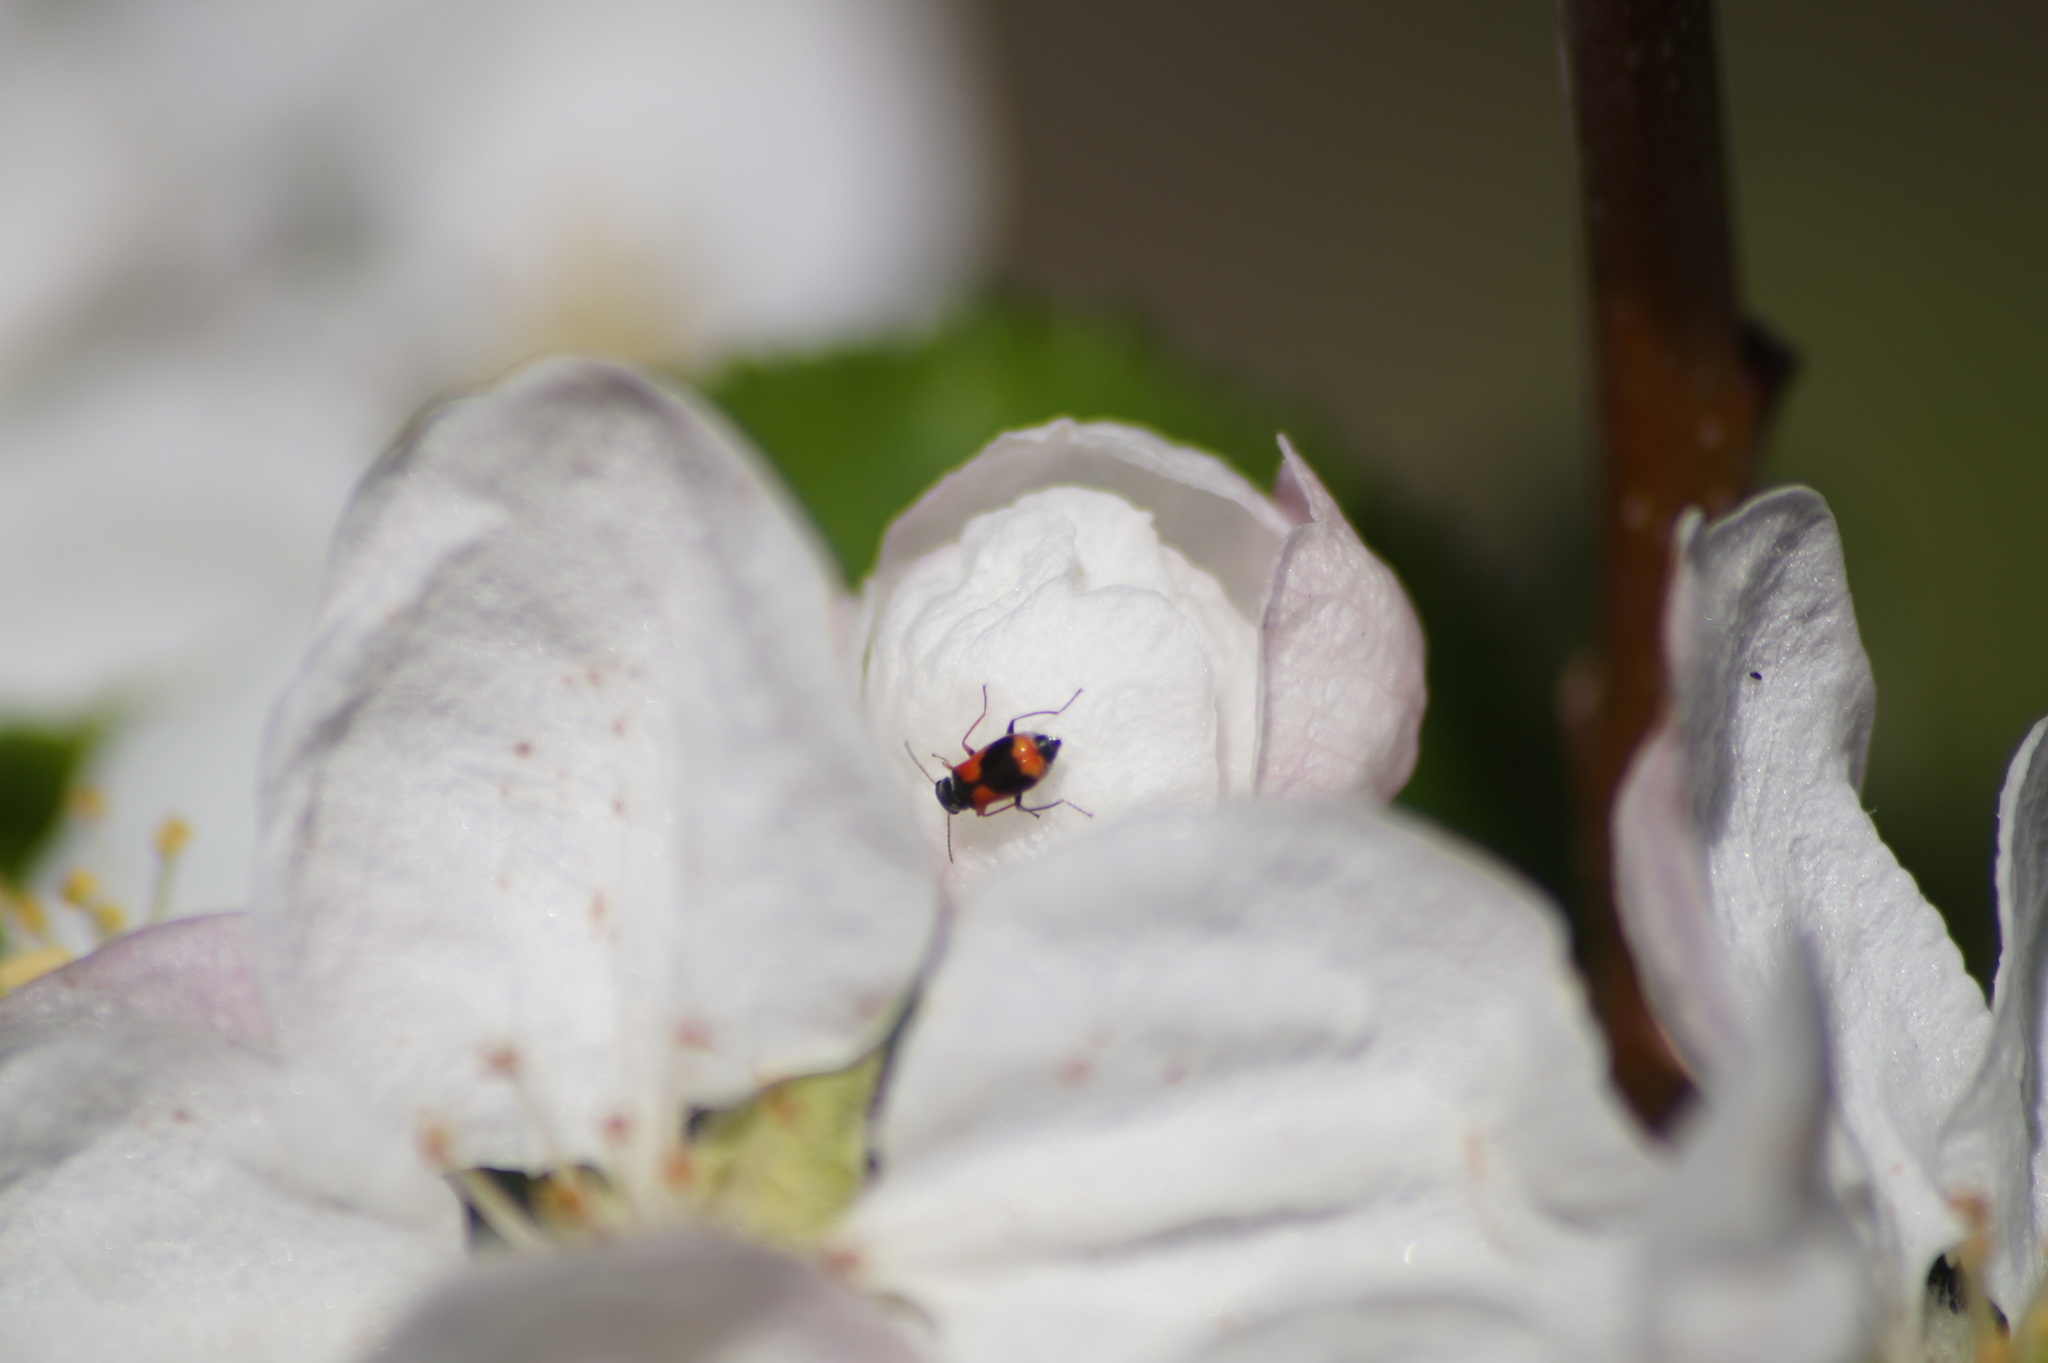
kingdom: Animalia
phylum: Arthropoda
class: Insecta
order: Coleoptera
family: Melyridae
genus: Anthocomus
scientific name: Anthocomus equestris
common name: Black-banded soft-winged flower beetle
